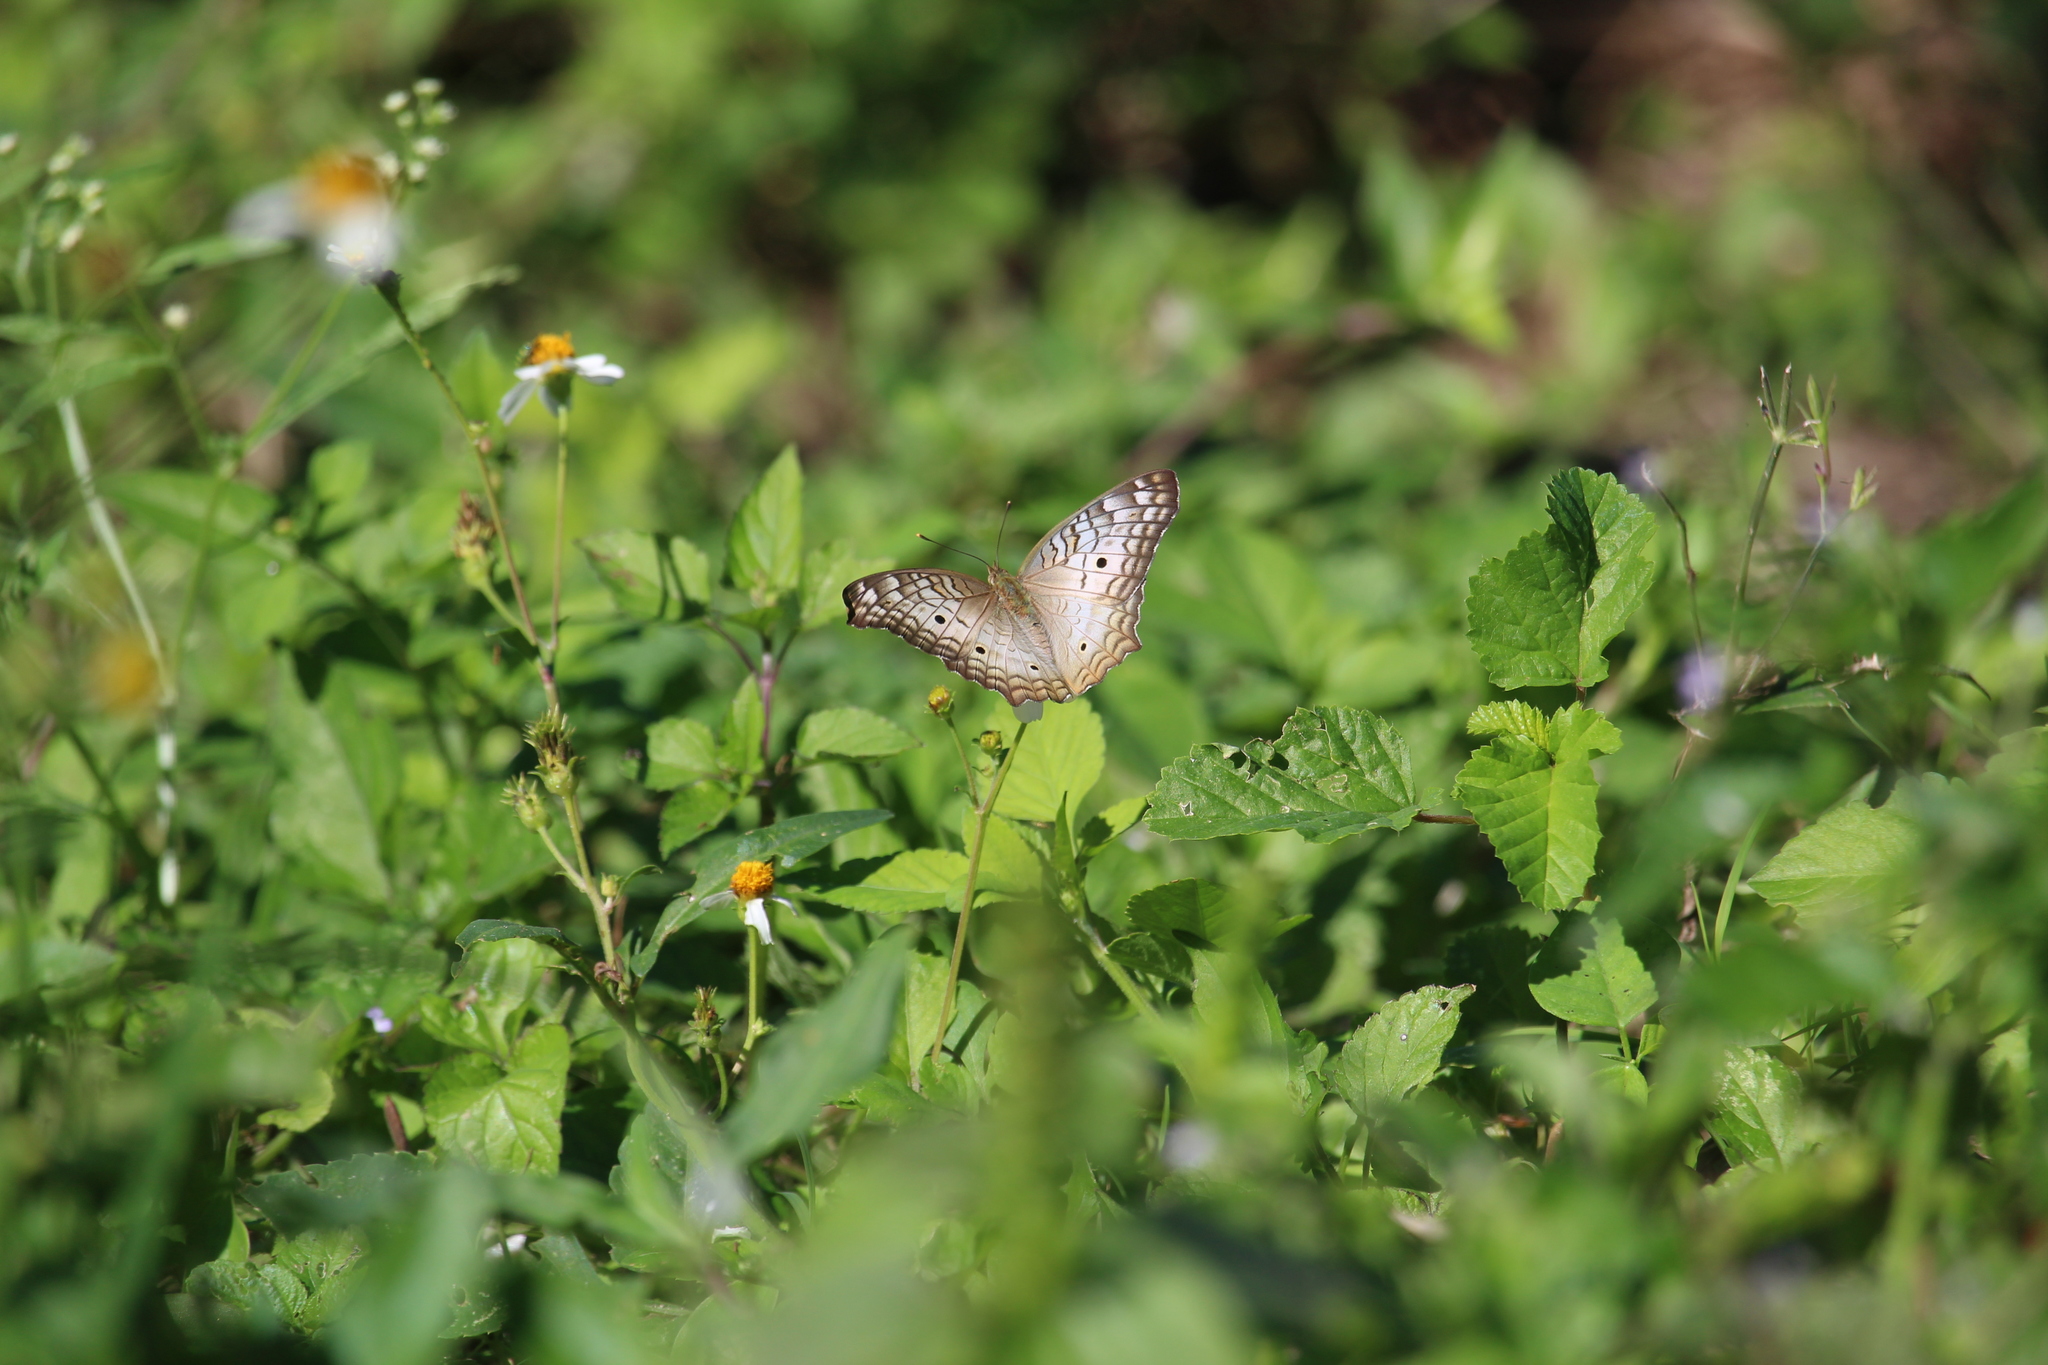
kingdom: Animalia
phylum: Arthropoda
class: Insecta
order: Lepidoptera
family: Nymphalidae
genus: Anartia
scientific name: Anartia jatrophae
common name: White peacock
